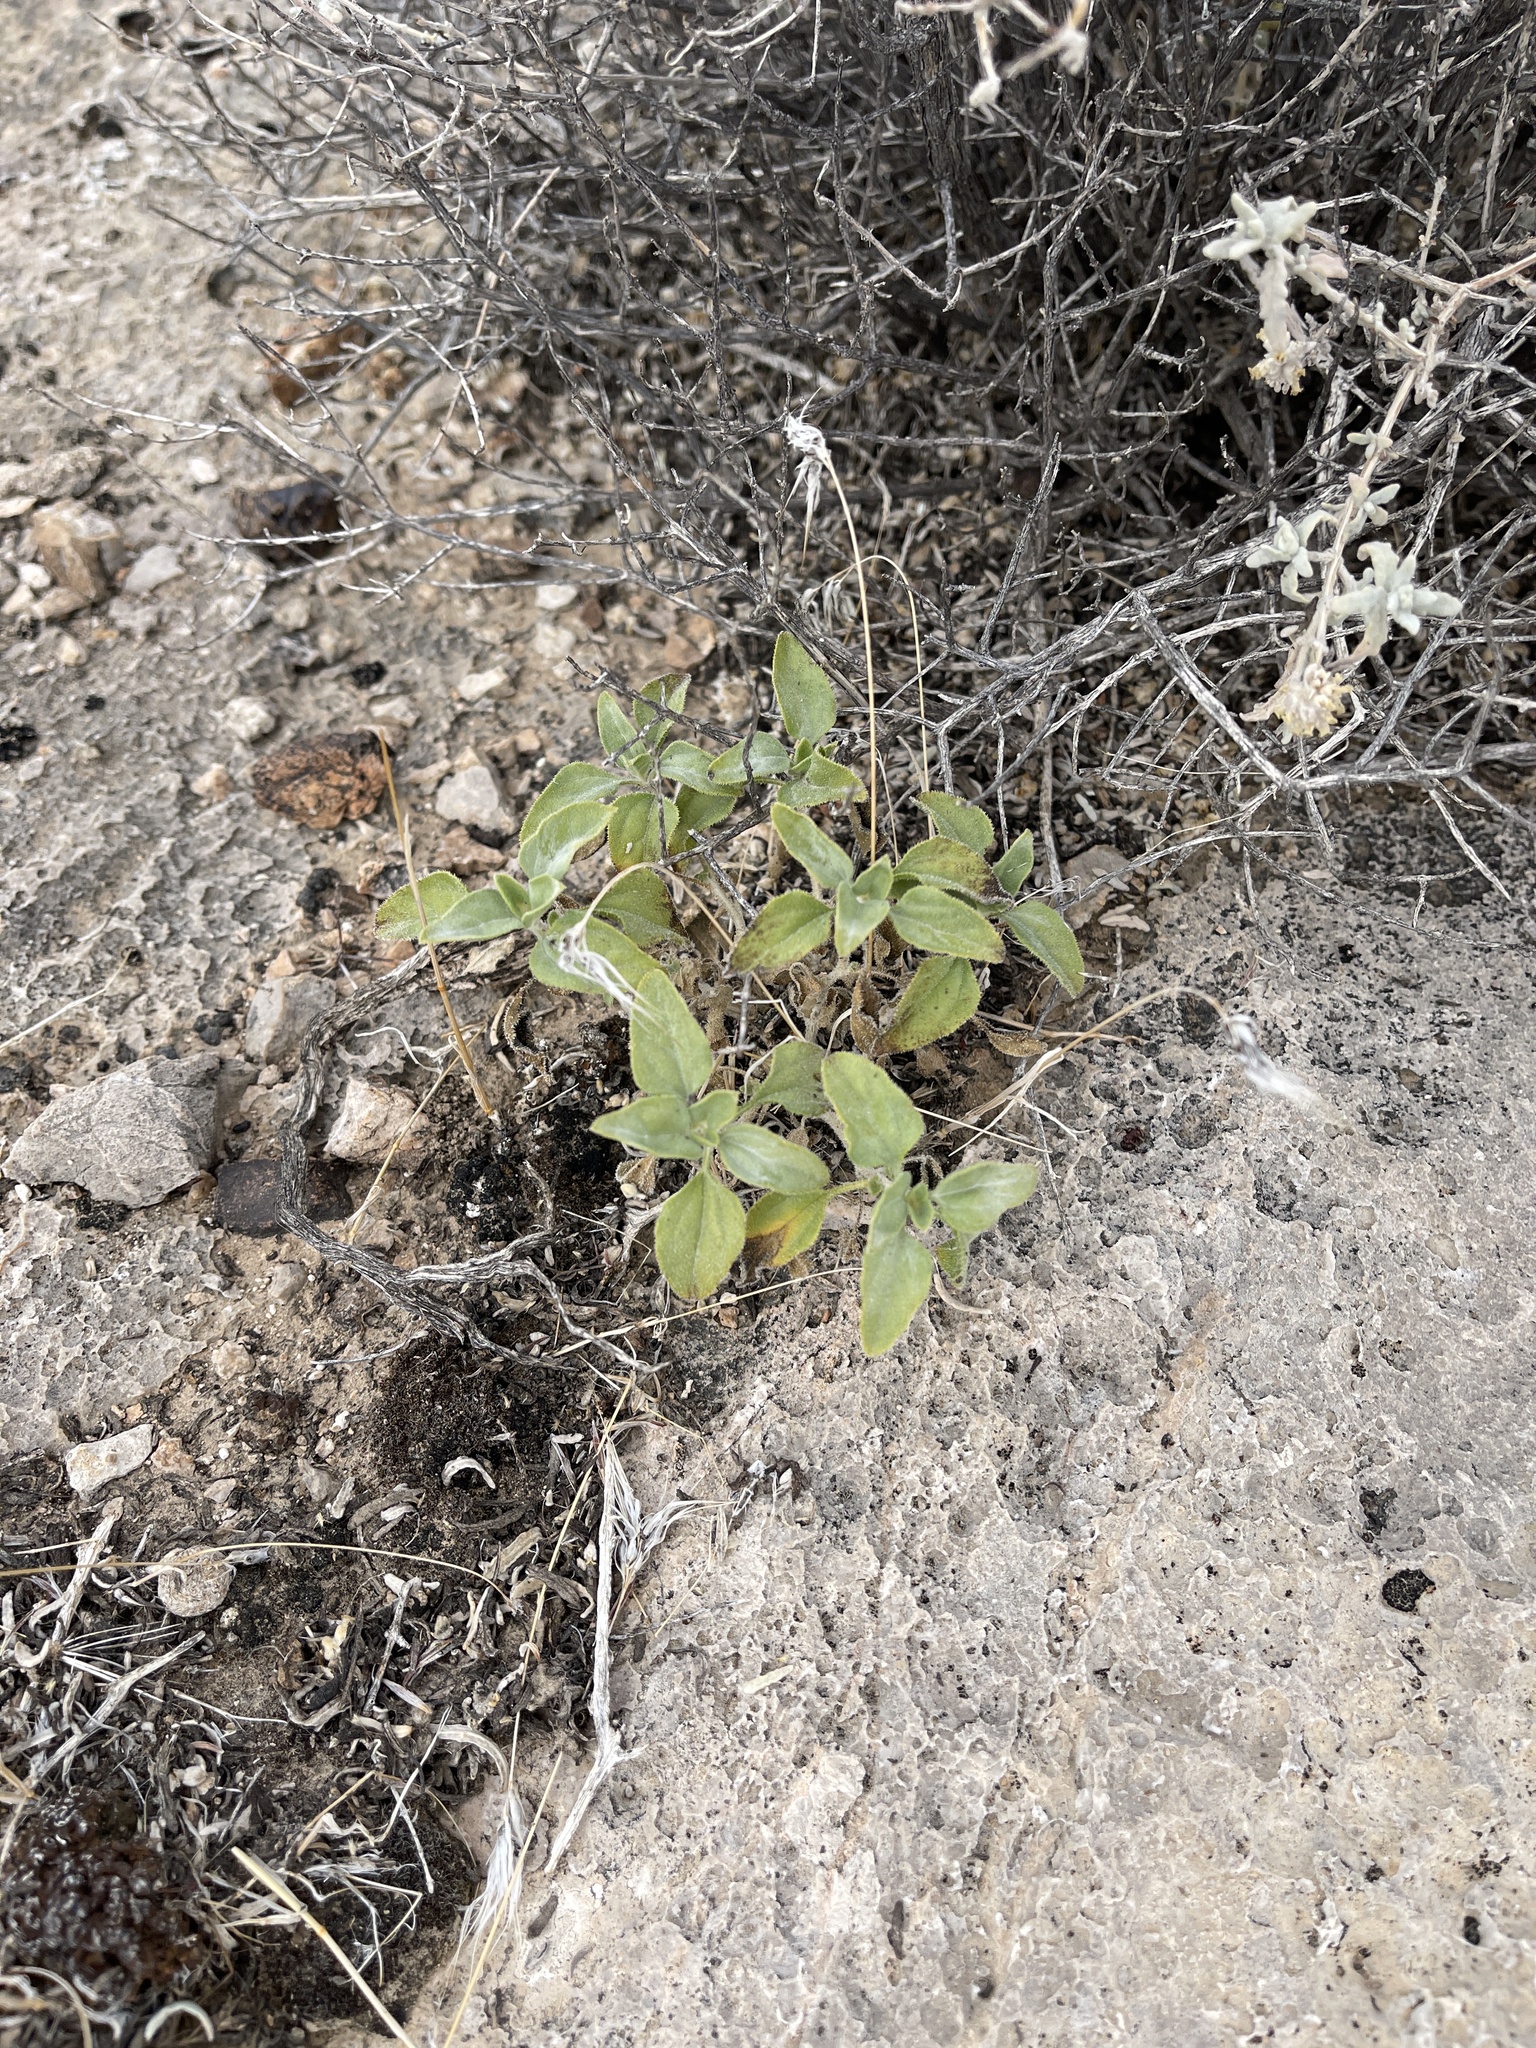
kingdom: Plantae
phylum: Tracheophyta
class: Magnoliopsida
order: Asterales
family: Asteraceae
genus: Encelia
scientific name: Encelia farinosa
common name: Brittlebush
